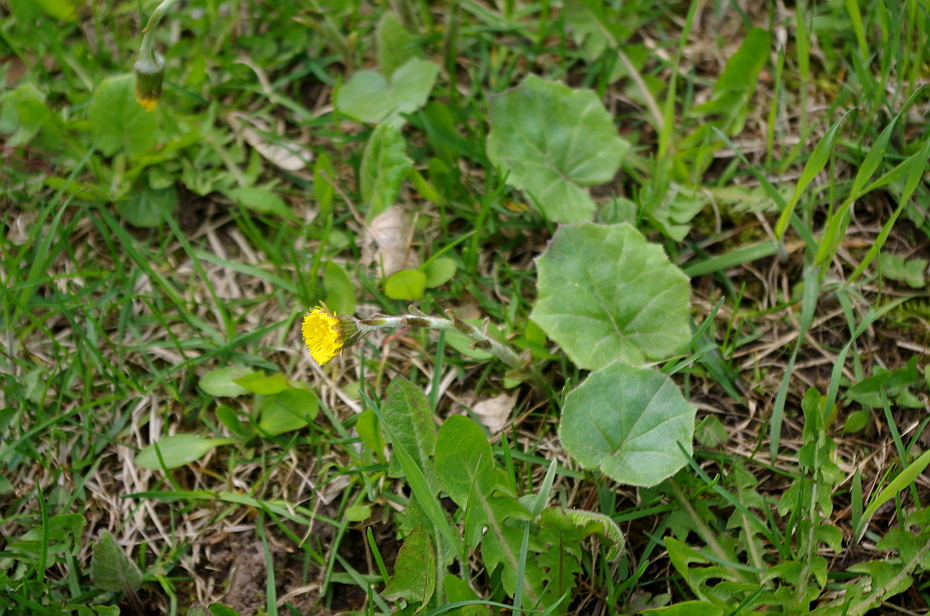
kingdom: Plantae
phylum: Tracheophyta
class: Magnoliopsida
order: Asterales
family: Asteraceae
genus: Tussilago
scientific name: Tussilago farfara
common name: Coltsfoot
